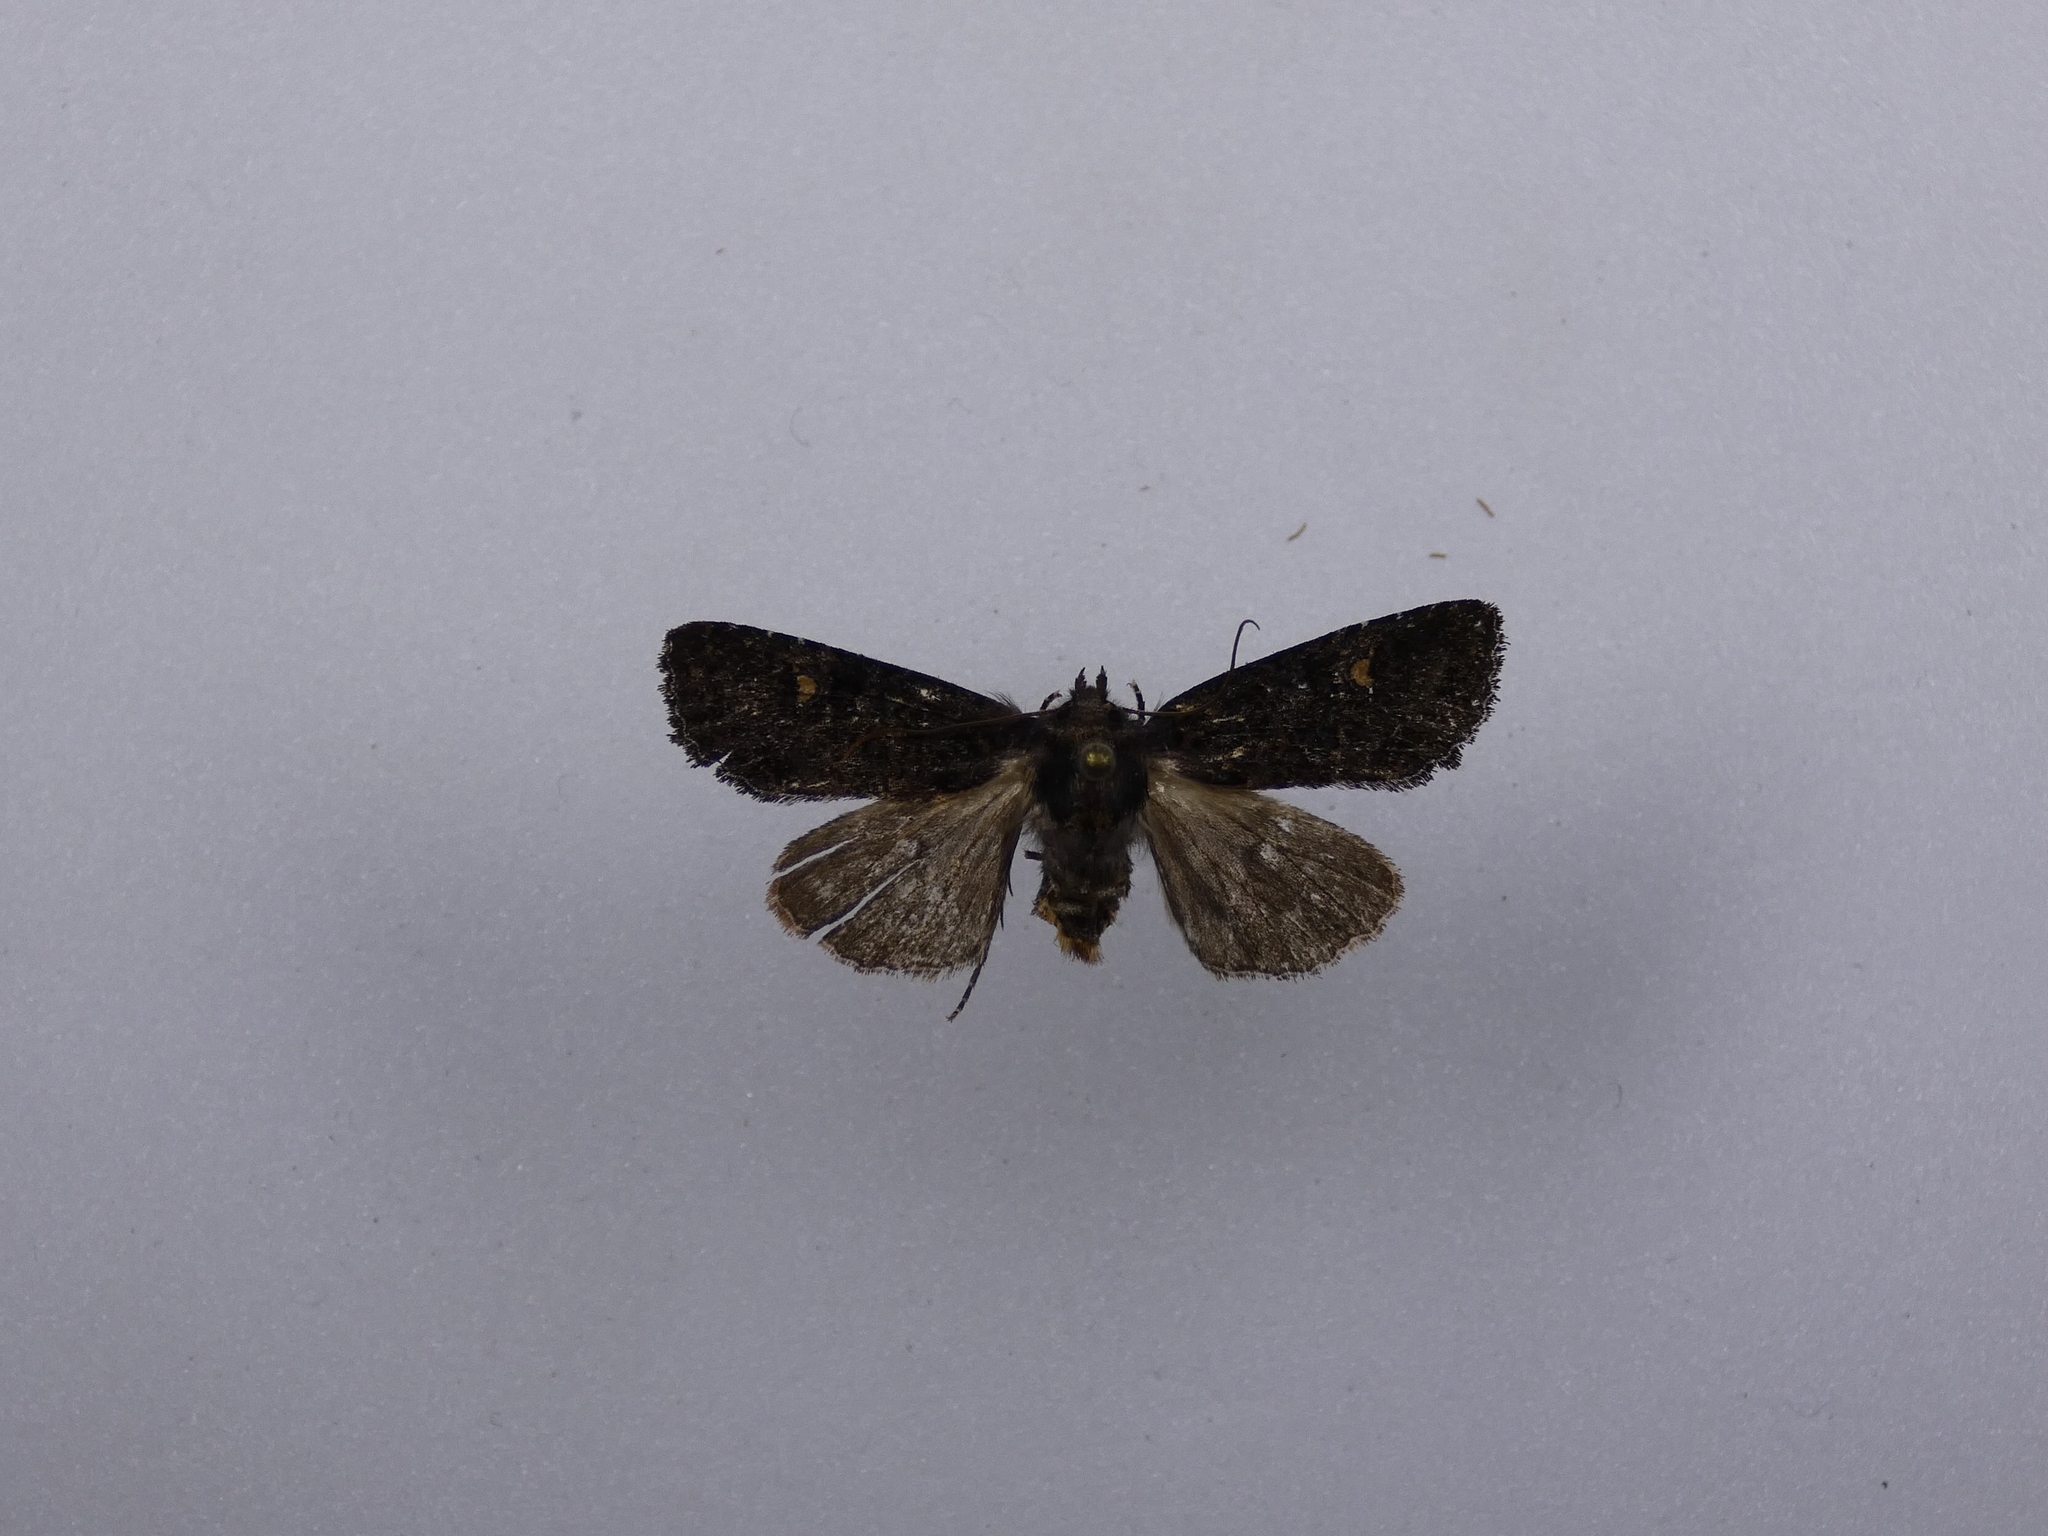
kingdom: Animalia
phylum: Arthropoda
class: Insecta
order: Lepidoptera
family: Noctuidae
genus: Meterana
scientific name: Meterana vitiosa
